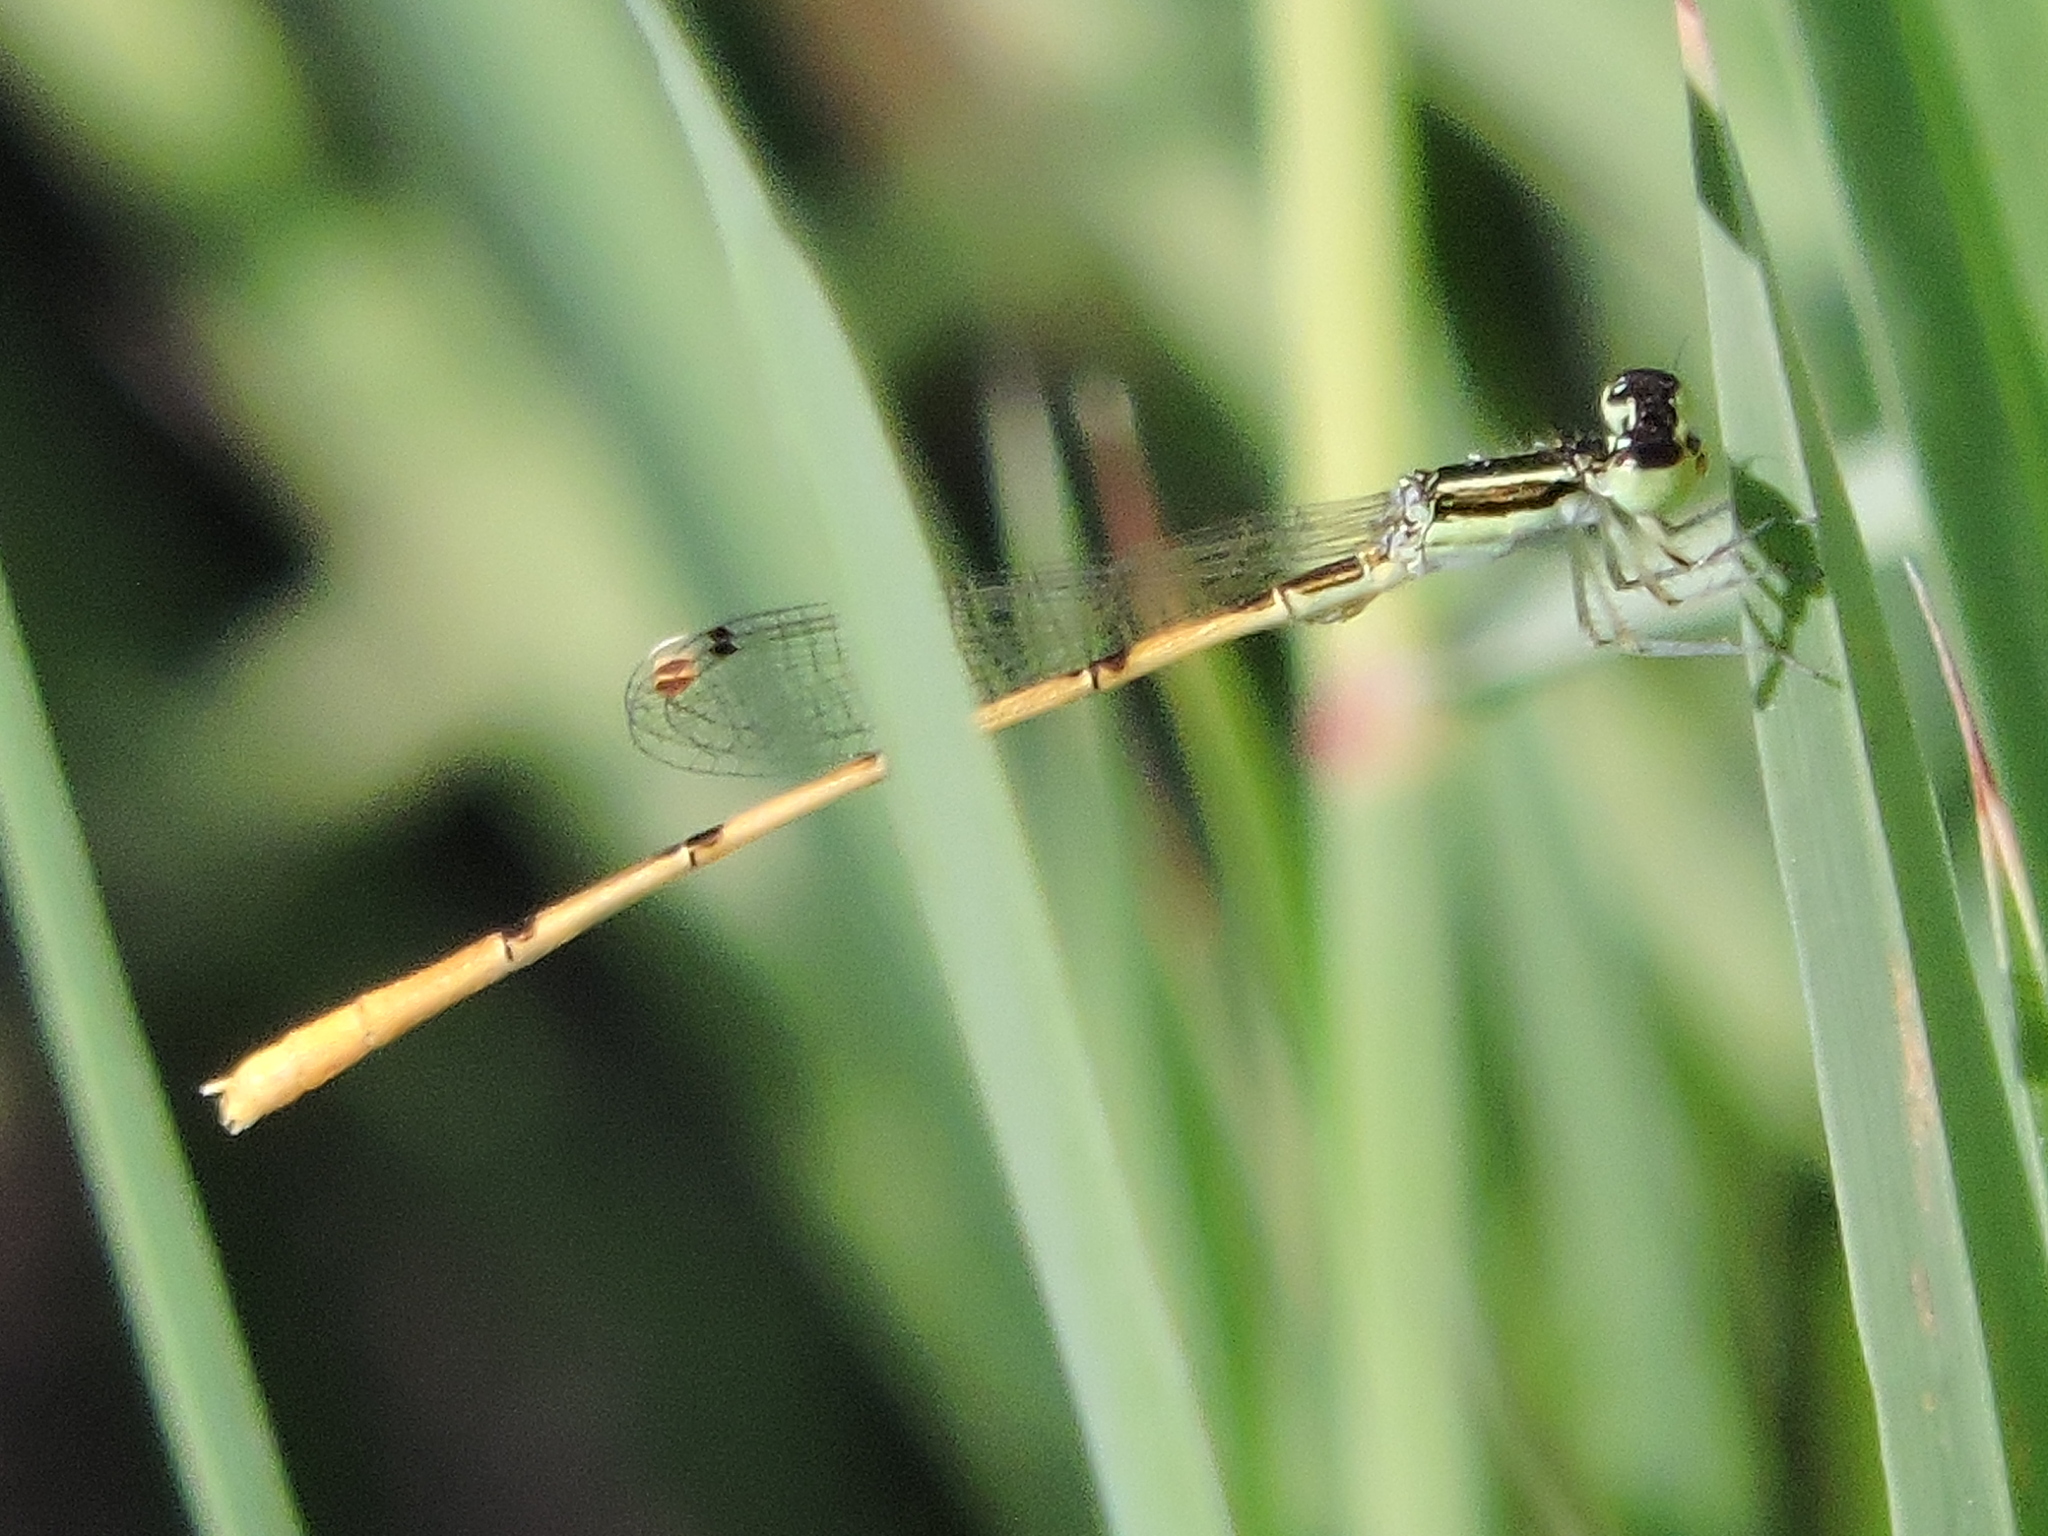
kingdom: Animalia
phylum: Arthropoda
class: Insecta
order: Odonata
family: Coenagrionidae
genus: Ischnura
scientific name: Ischnura hastata
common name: Citrine forktail
